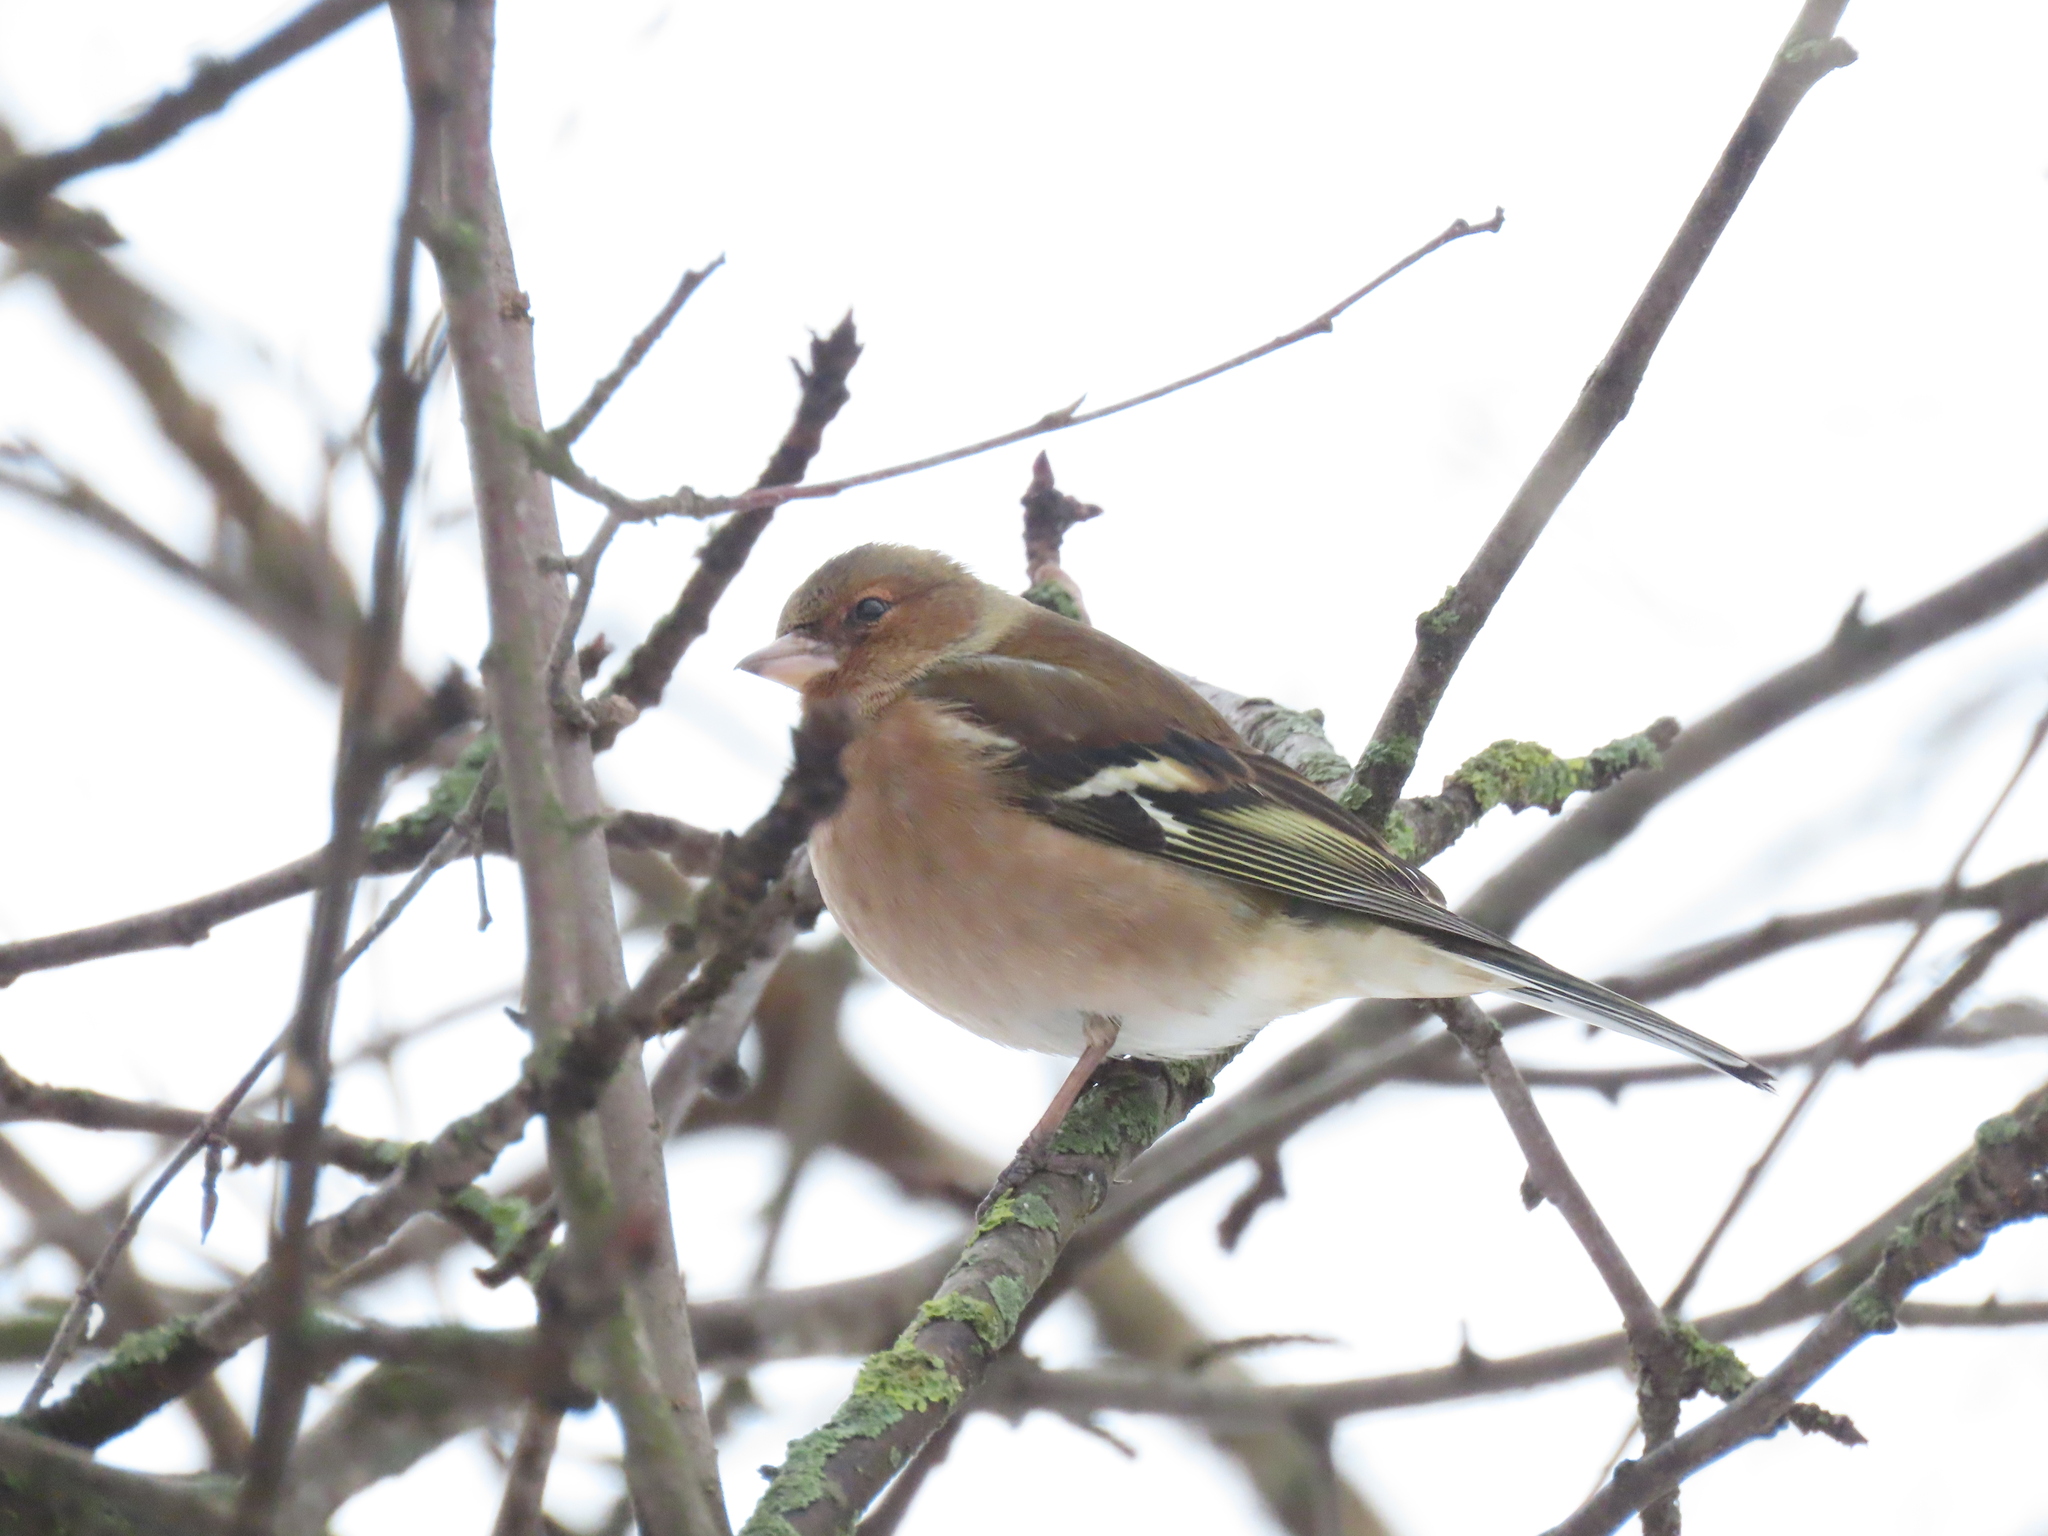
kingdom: Animalia
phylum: Chordata
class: Aves
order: Passeriformes
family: Fringillidae
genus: Fringilla
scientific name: Fringilla coelebs
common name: Common chaffinch
